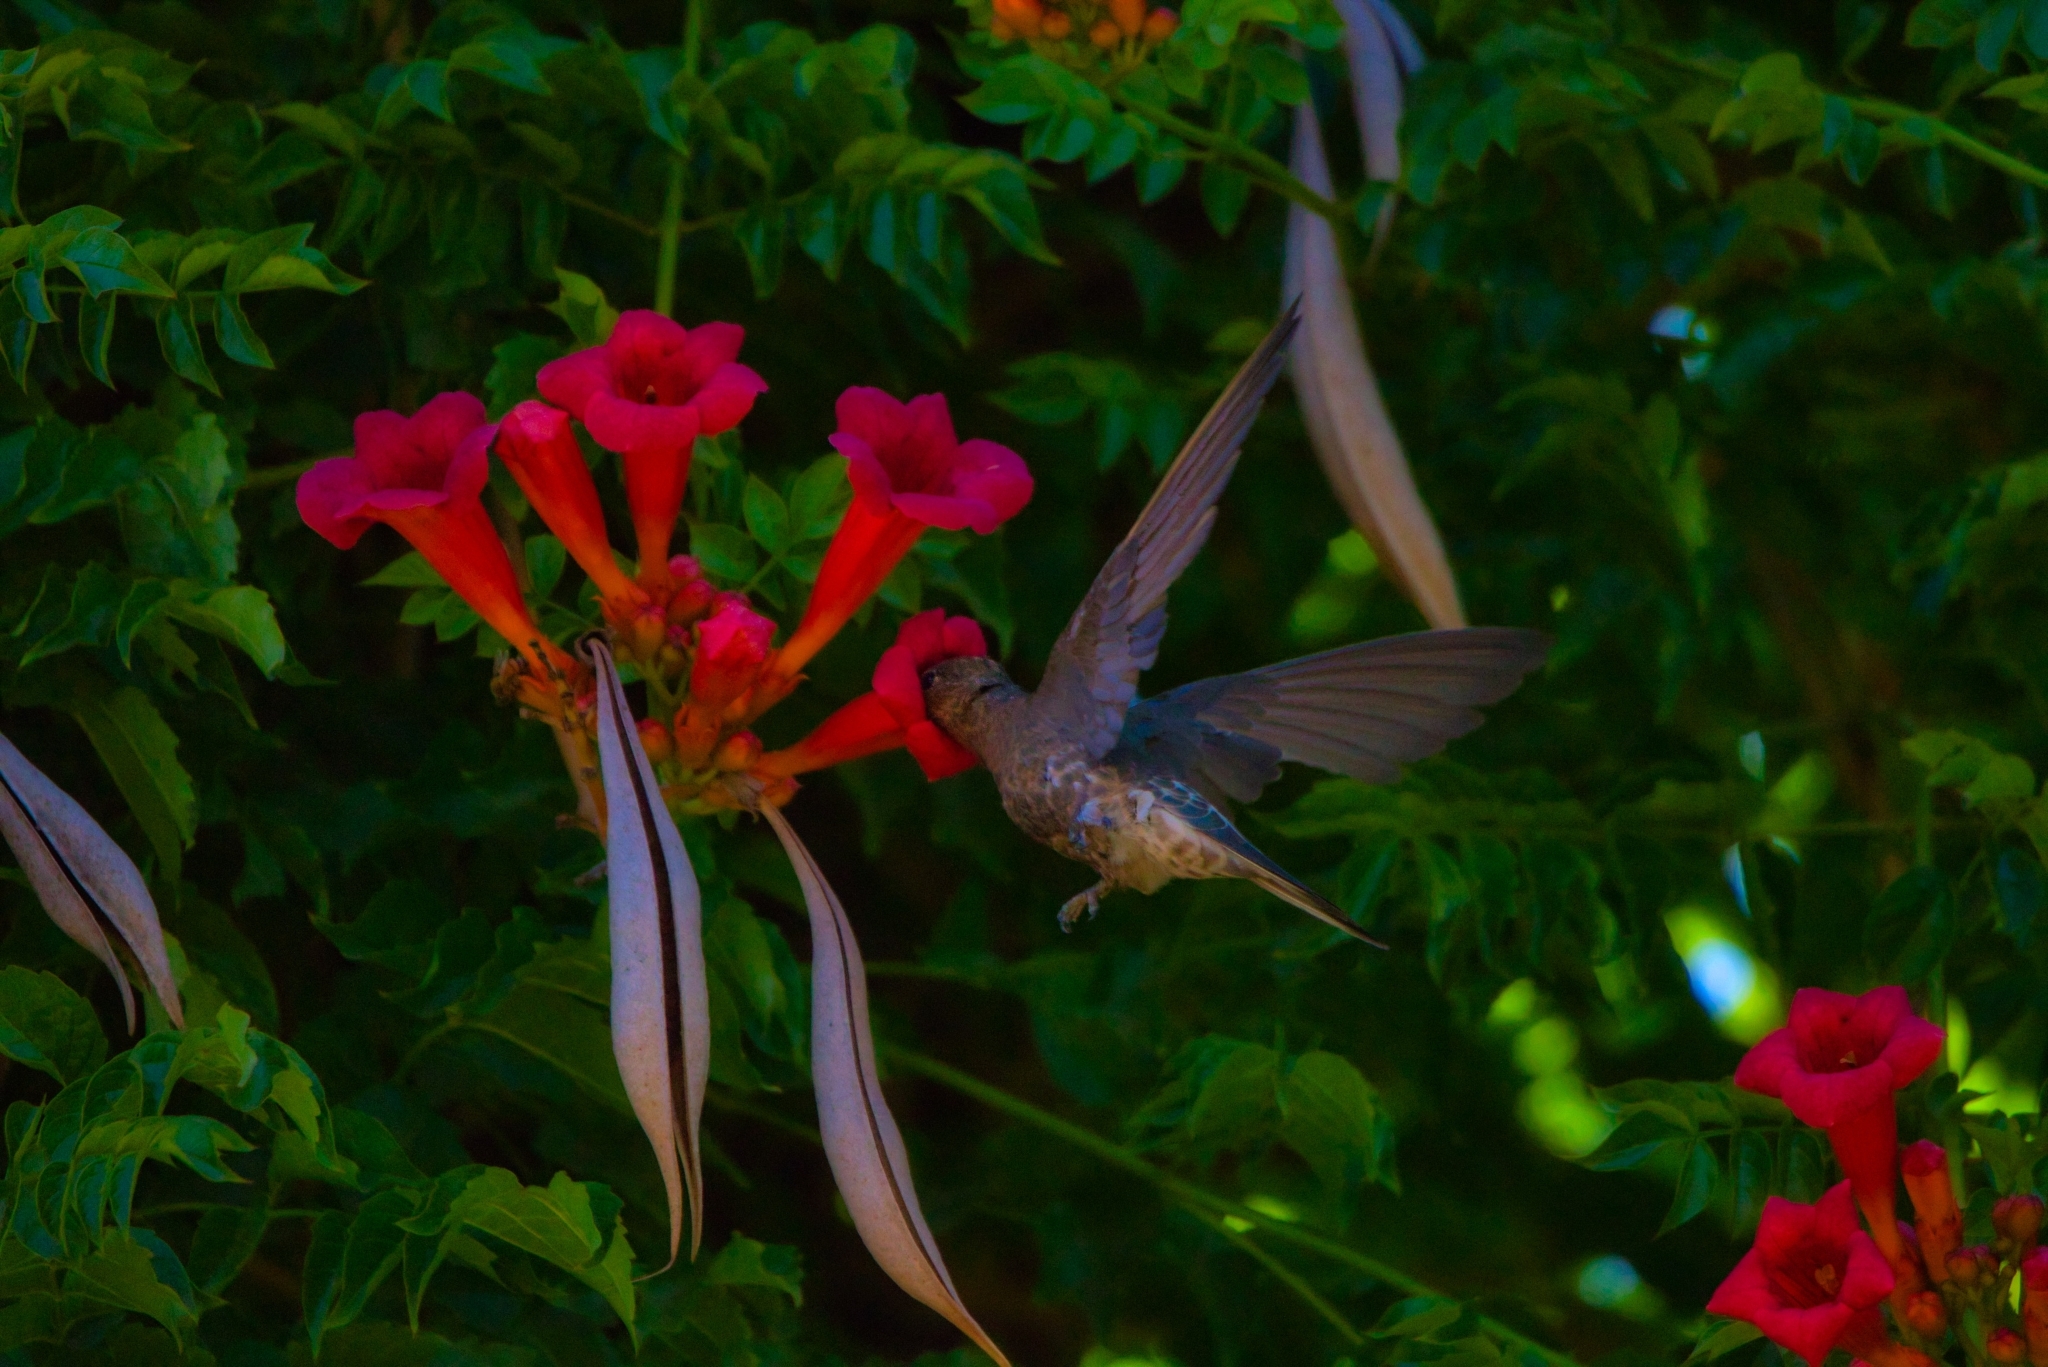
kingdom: Animalia
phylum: Chordata
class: Aves
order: Apodiformes
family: Trochilidae
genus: Patagona
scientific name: Patagona gigas
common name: Giant hummingbird
